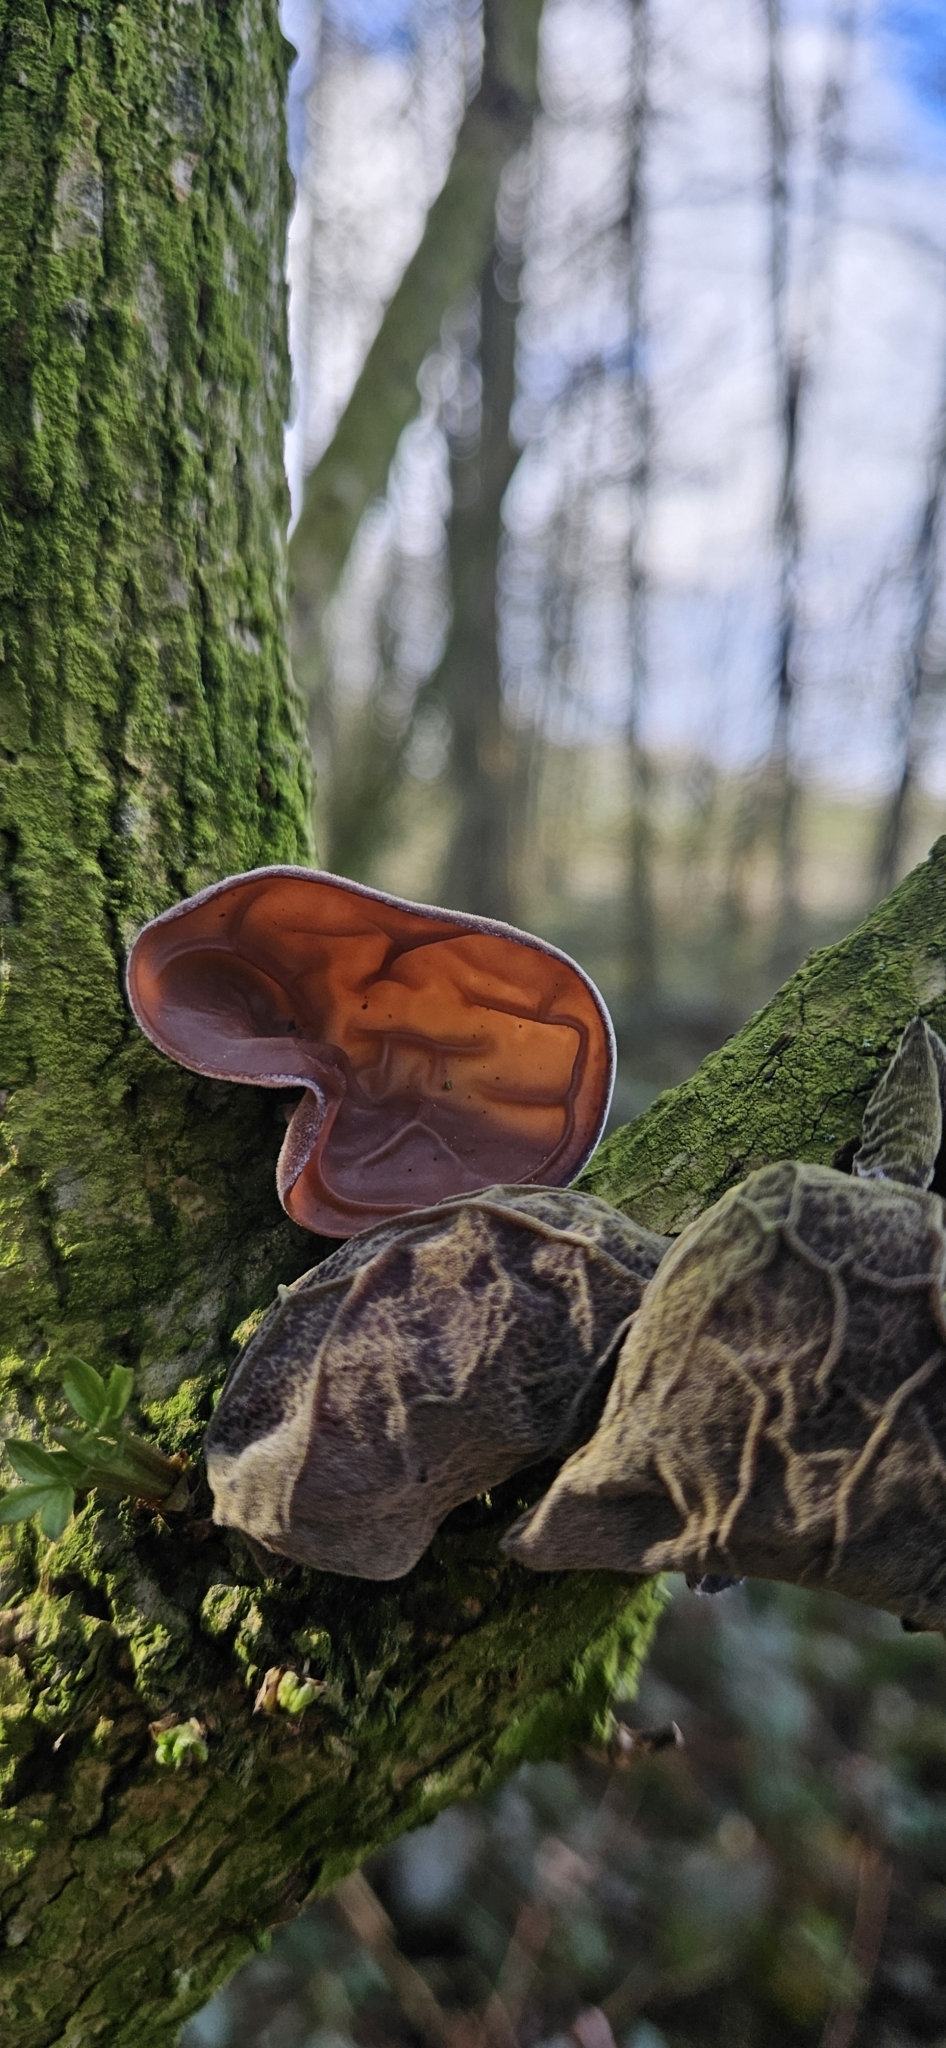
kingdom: Fungi
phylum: Basidiomycota
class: Agaricomycetes
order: Auriculariales
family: Auriculariaceae
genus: Auricularia
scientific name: Auricularia auricula-judae
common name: Jelly ear
